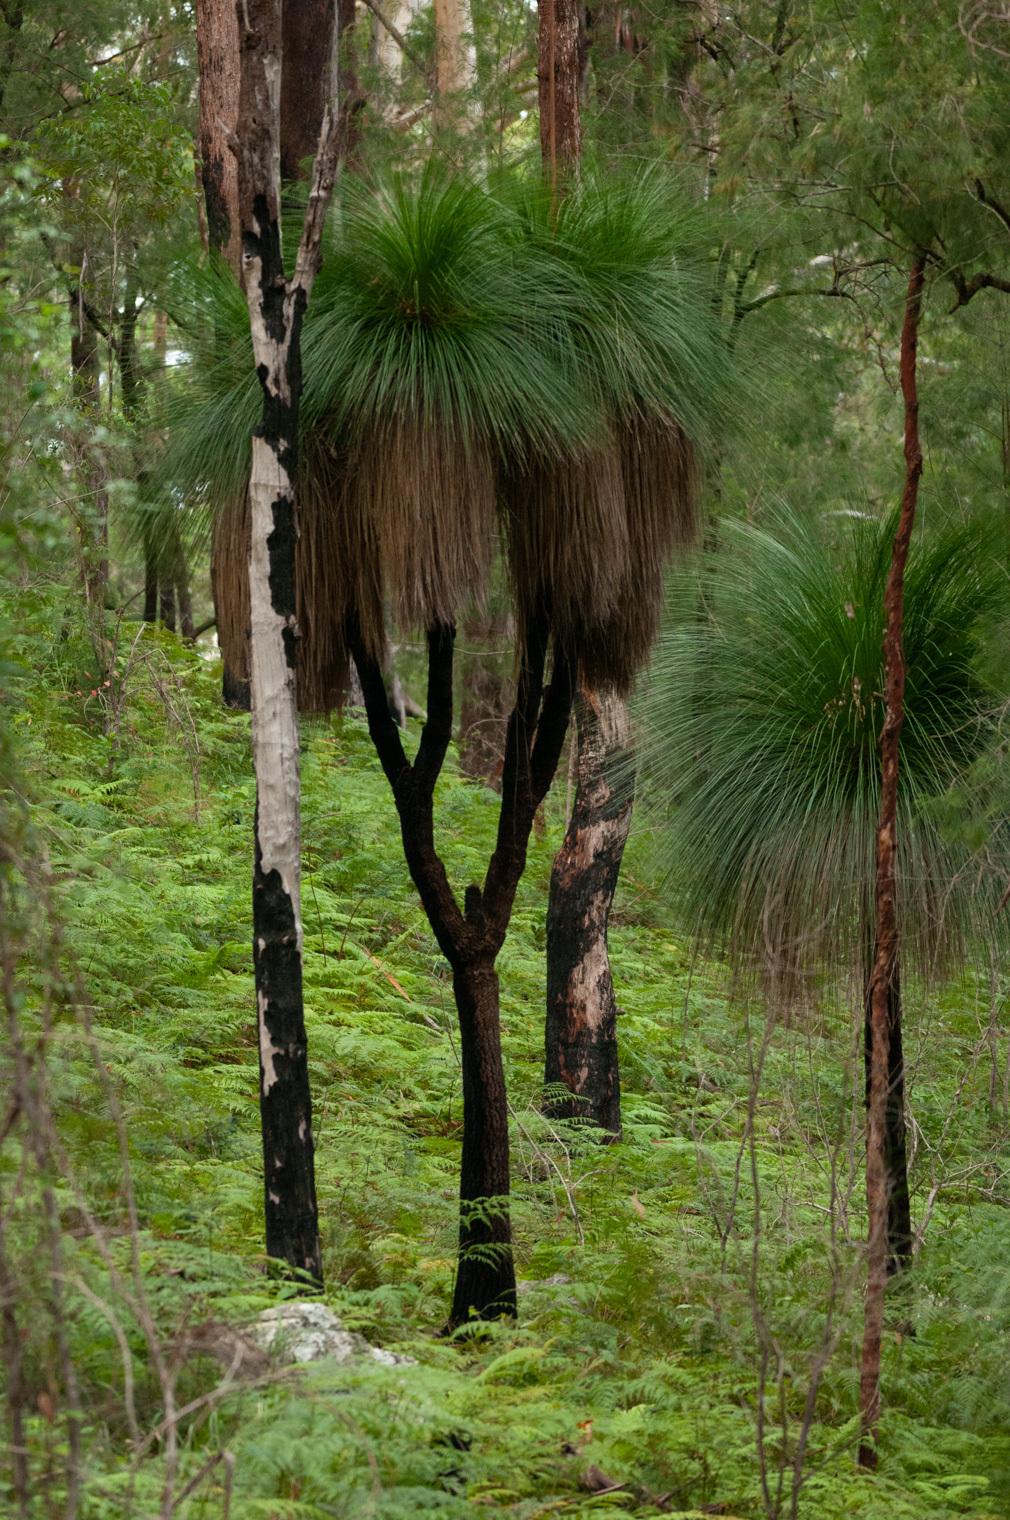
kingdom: Plantae
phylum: Tracheophyta
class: Liliopsida
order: Asparagales
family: Asphodelaceae
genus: Xanthorrhoea
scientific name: Xanthorrhoea malacophylla
